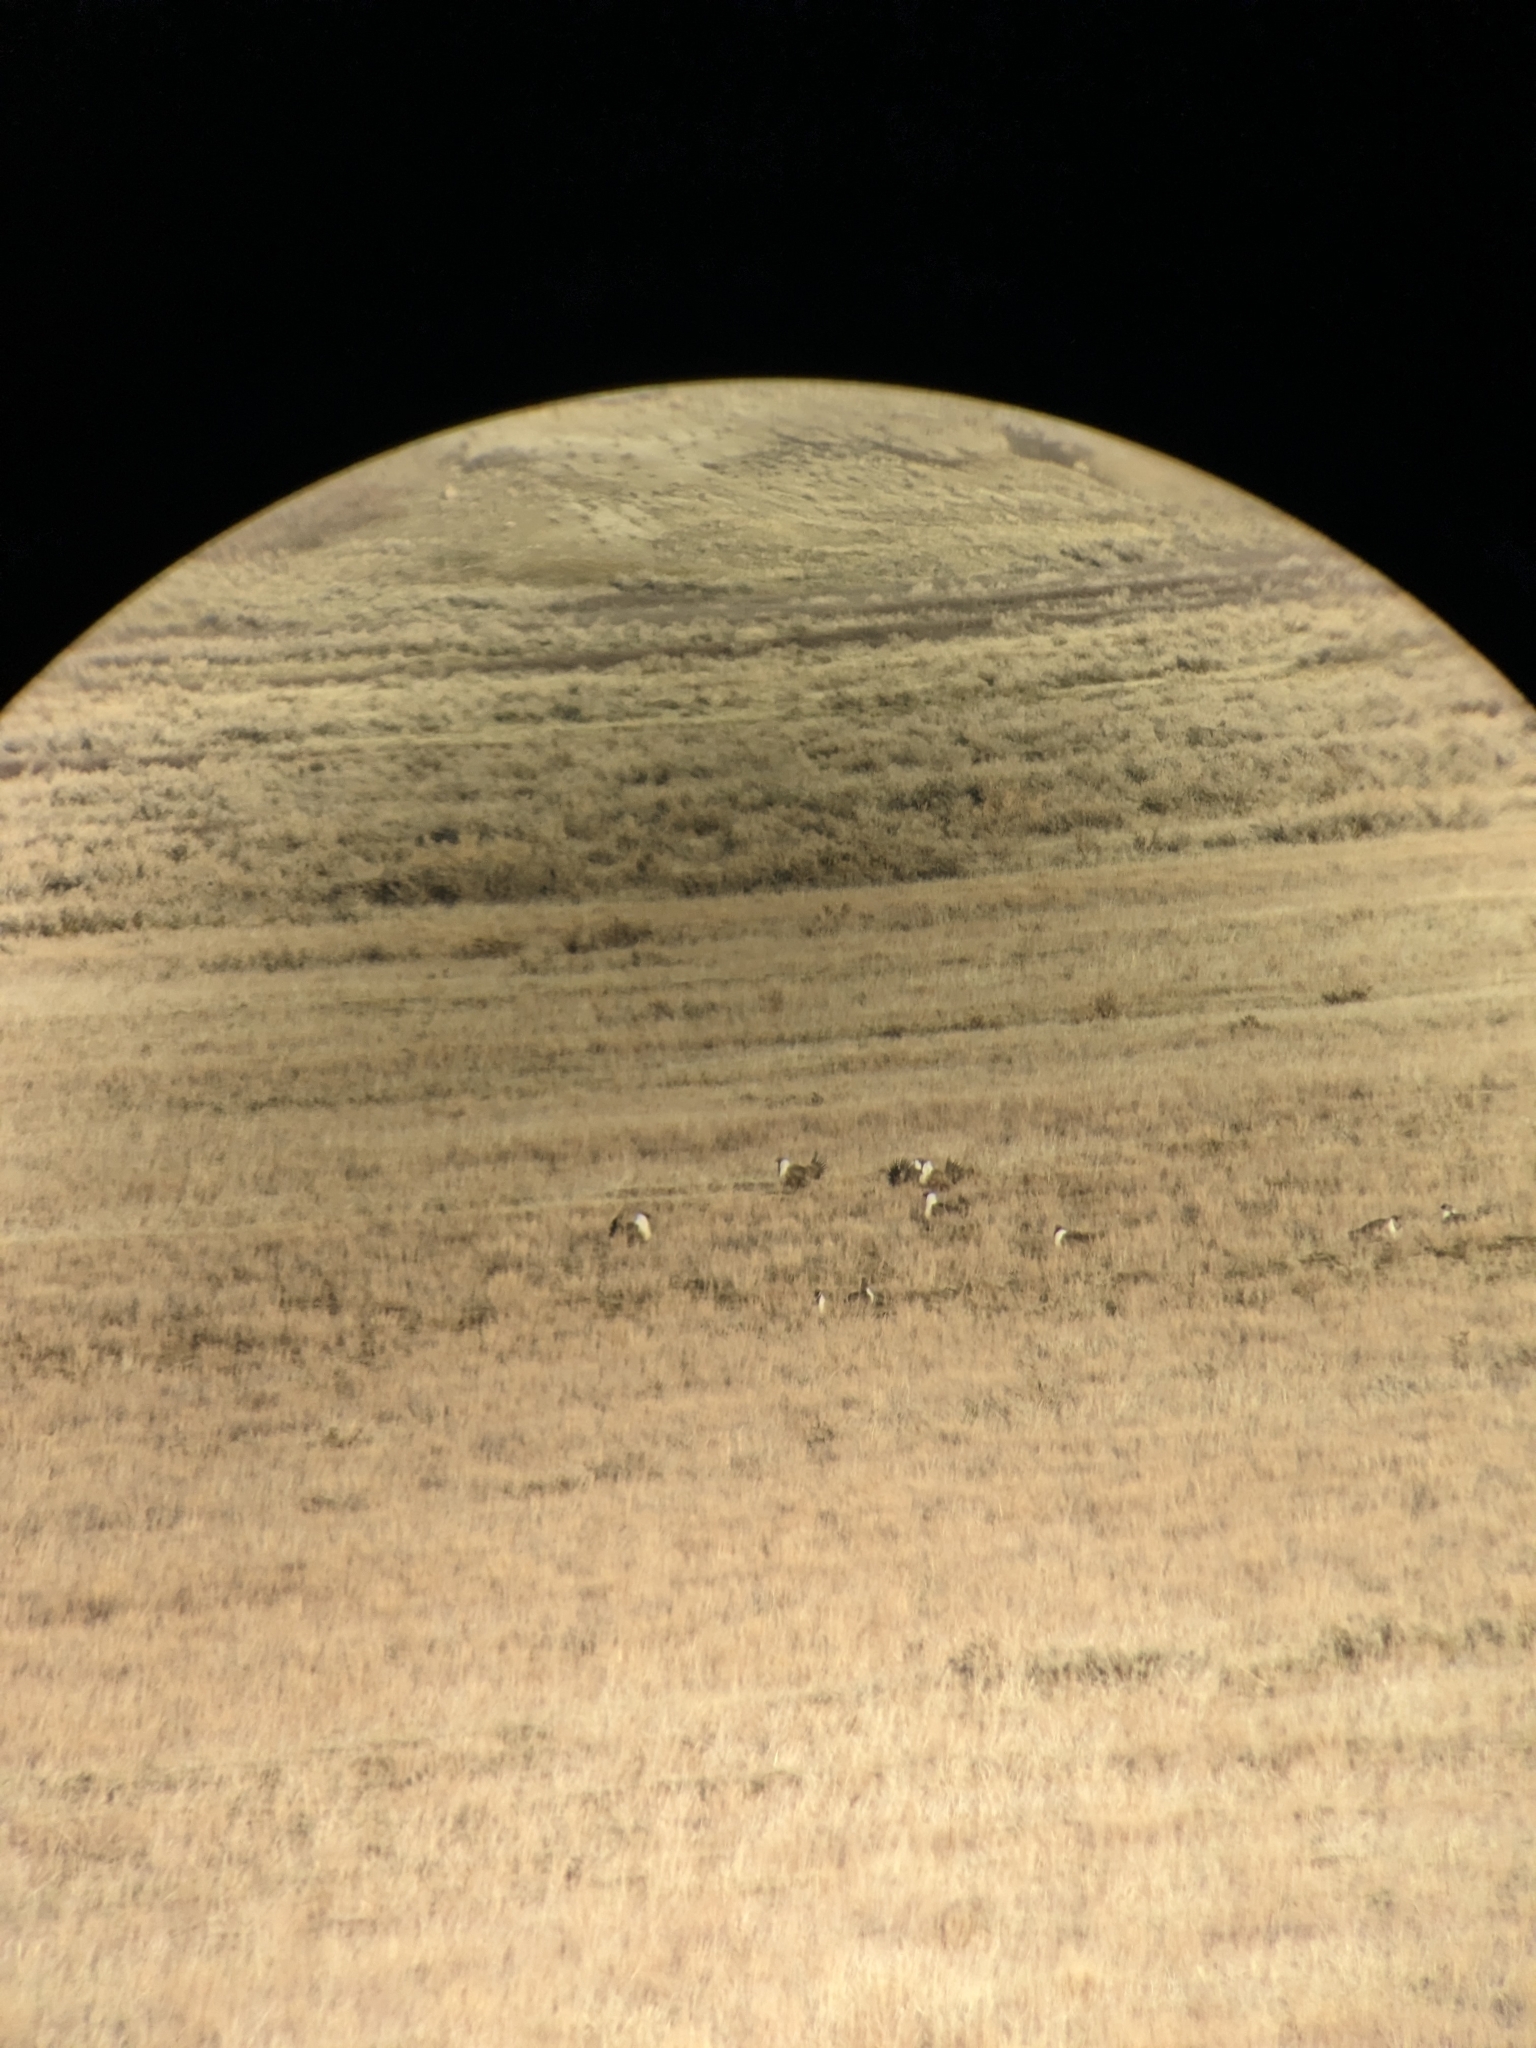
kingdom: Animalia
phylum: Chordata
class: Aves
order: Galliformes
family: Phasianidae
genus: Centrocercus
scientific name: Centrocercus urophasianus
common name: Sage grouse
